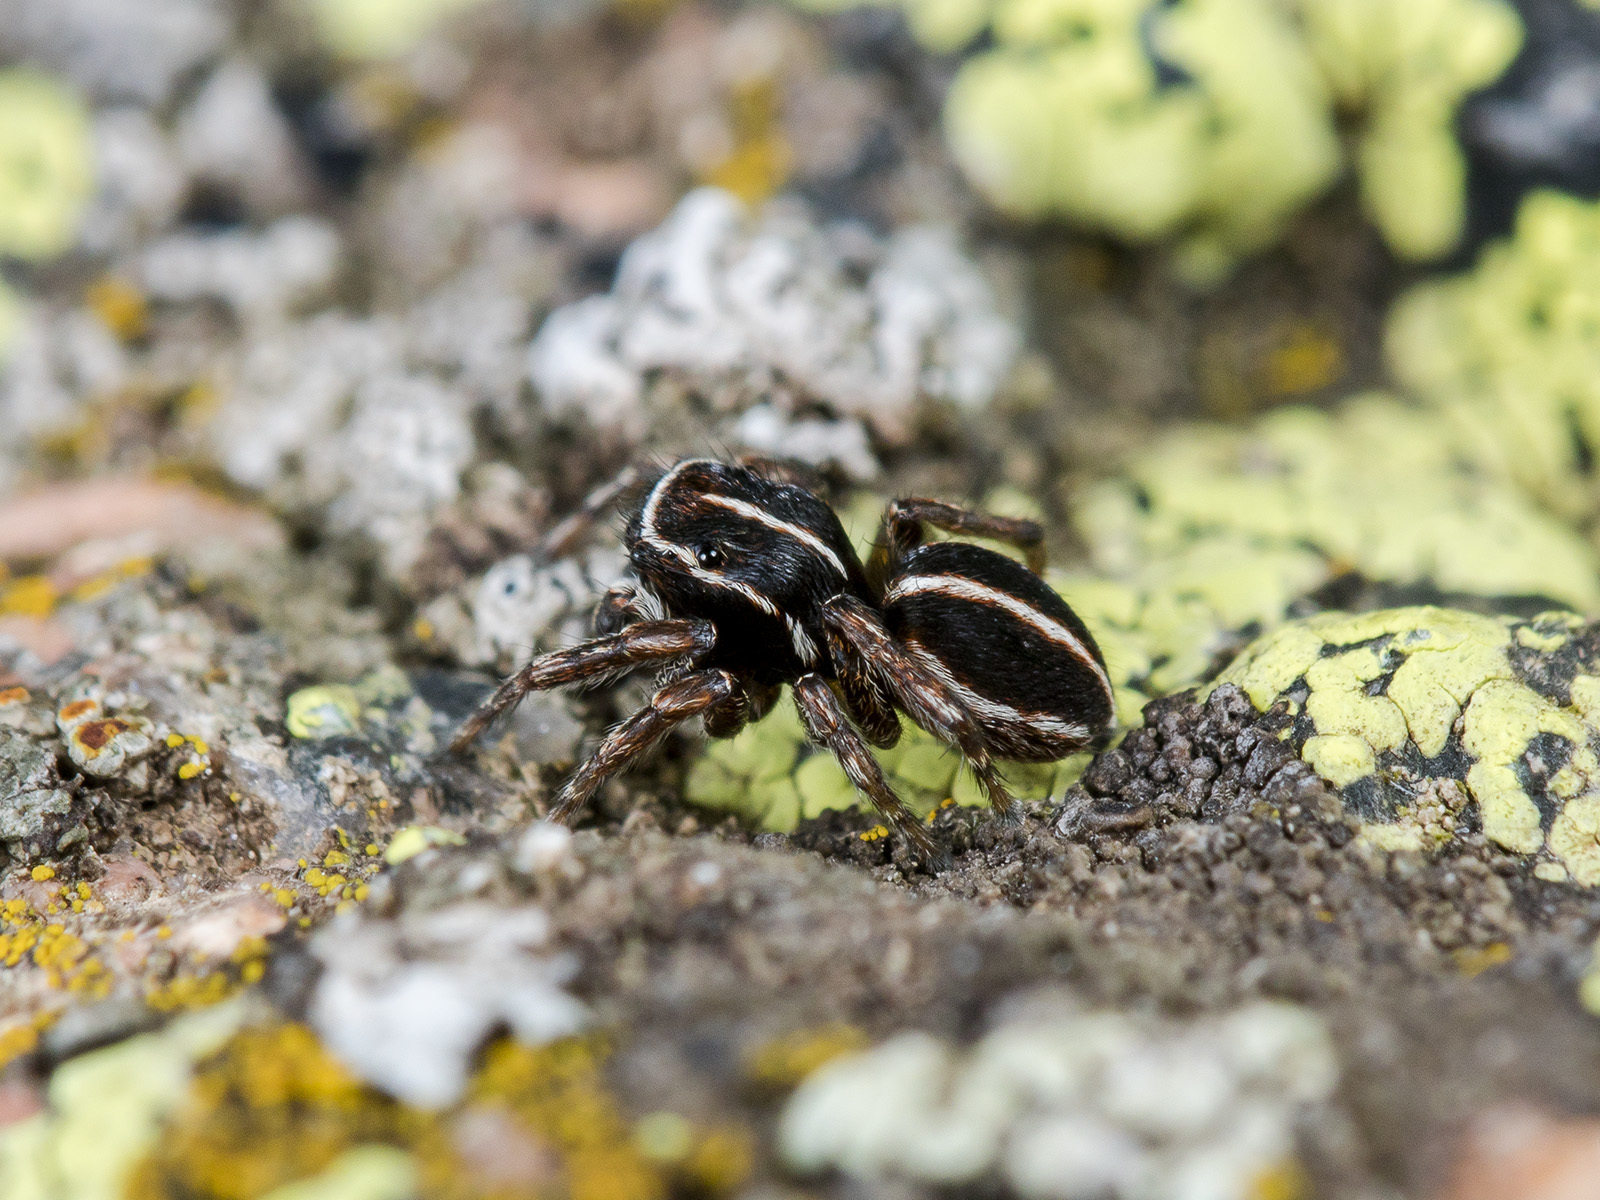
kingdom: Animalia
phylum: Arthropoda
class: Arachnida
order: Araneae
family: Salticidae
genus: Attulus
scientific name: Attulus monstrabilis
